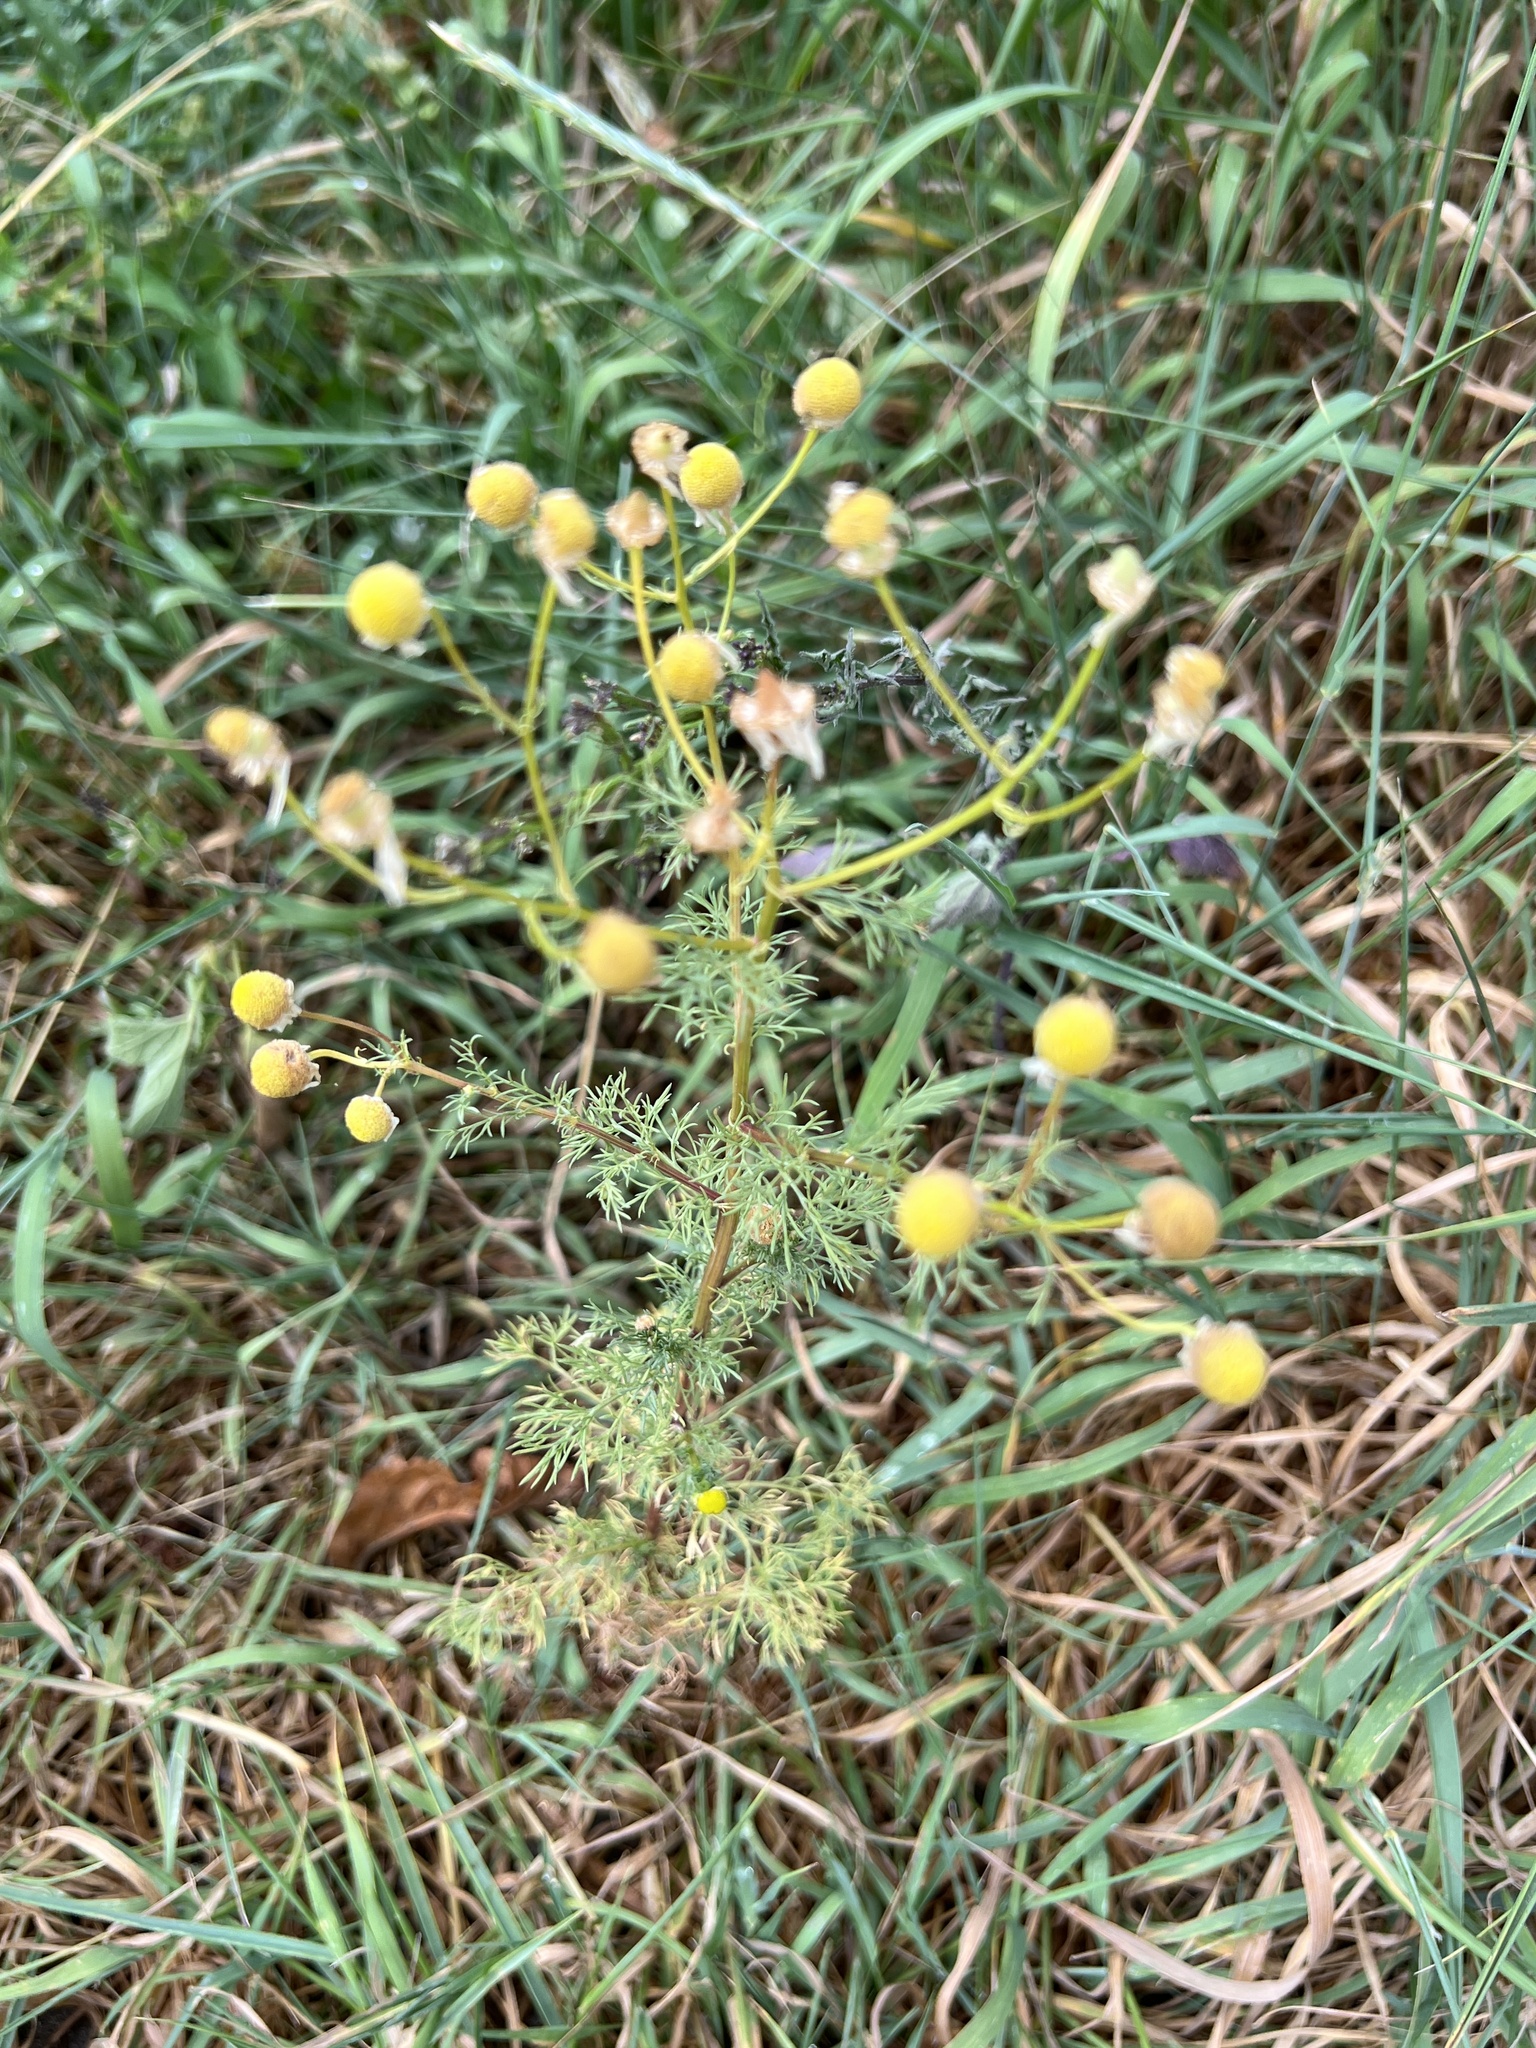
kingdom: Plantae
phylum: Tracheophyta
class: Magnoliopsida
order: Asterales
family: Asteraceae
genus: Matricaria
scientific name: Matricaria discoidea
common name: Disc mayweed
